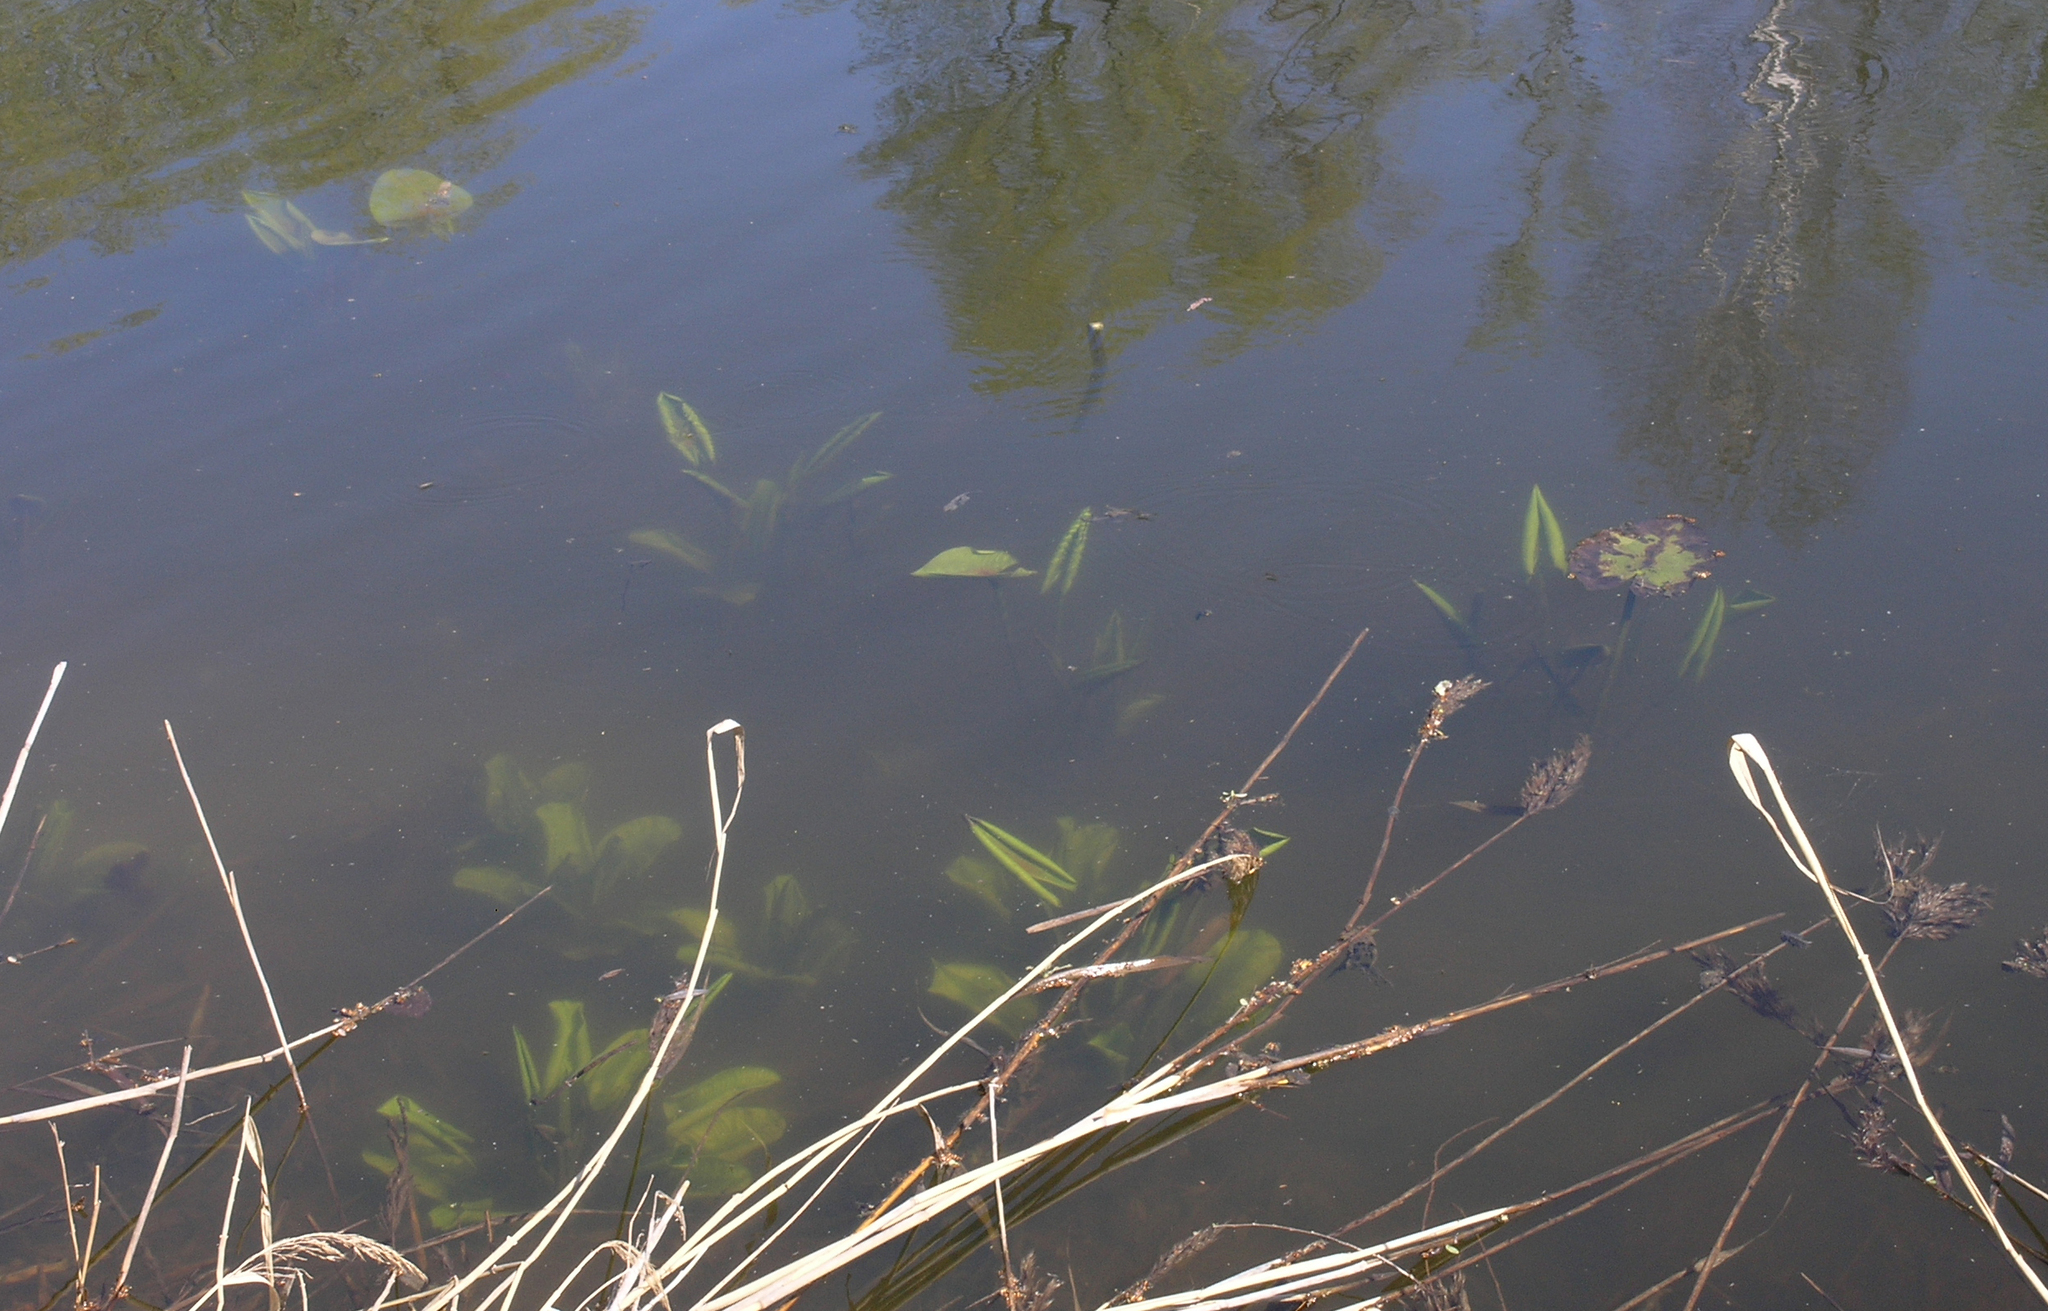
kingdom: Plantae
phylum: Tracheophyta
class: Magnoliopsida
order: Nymphaeales
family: Nymphaeaceae
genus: Nuphar
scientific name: Nuphar lutea
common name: Yellow water-lily
